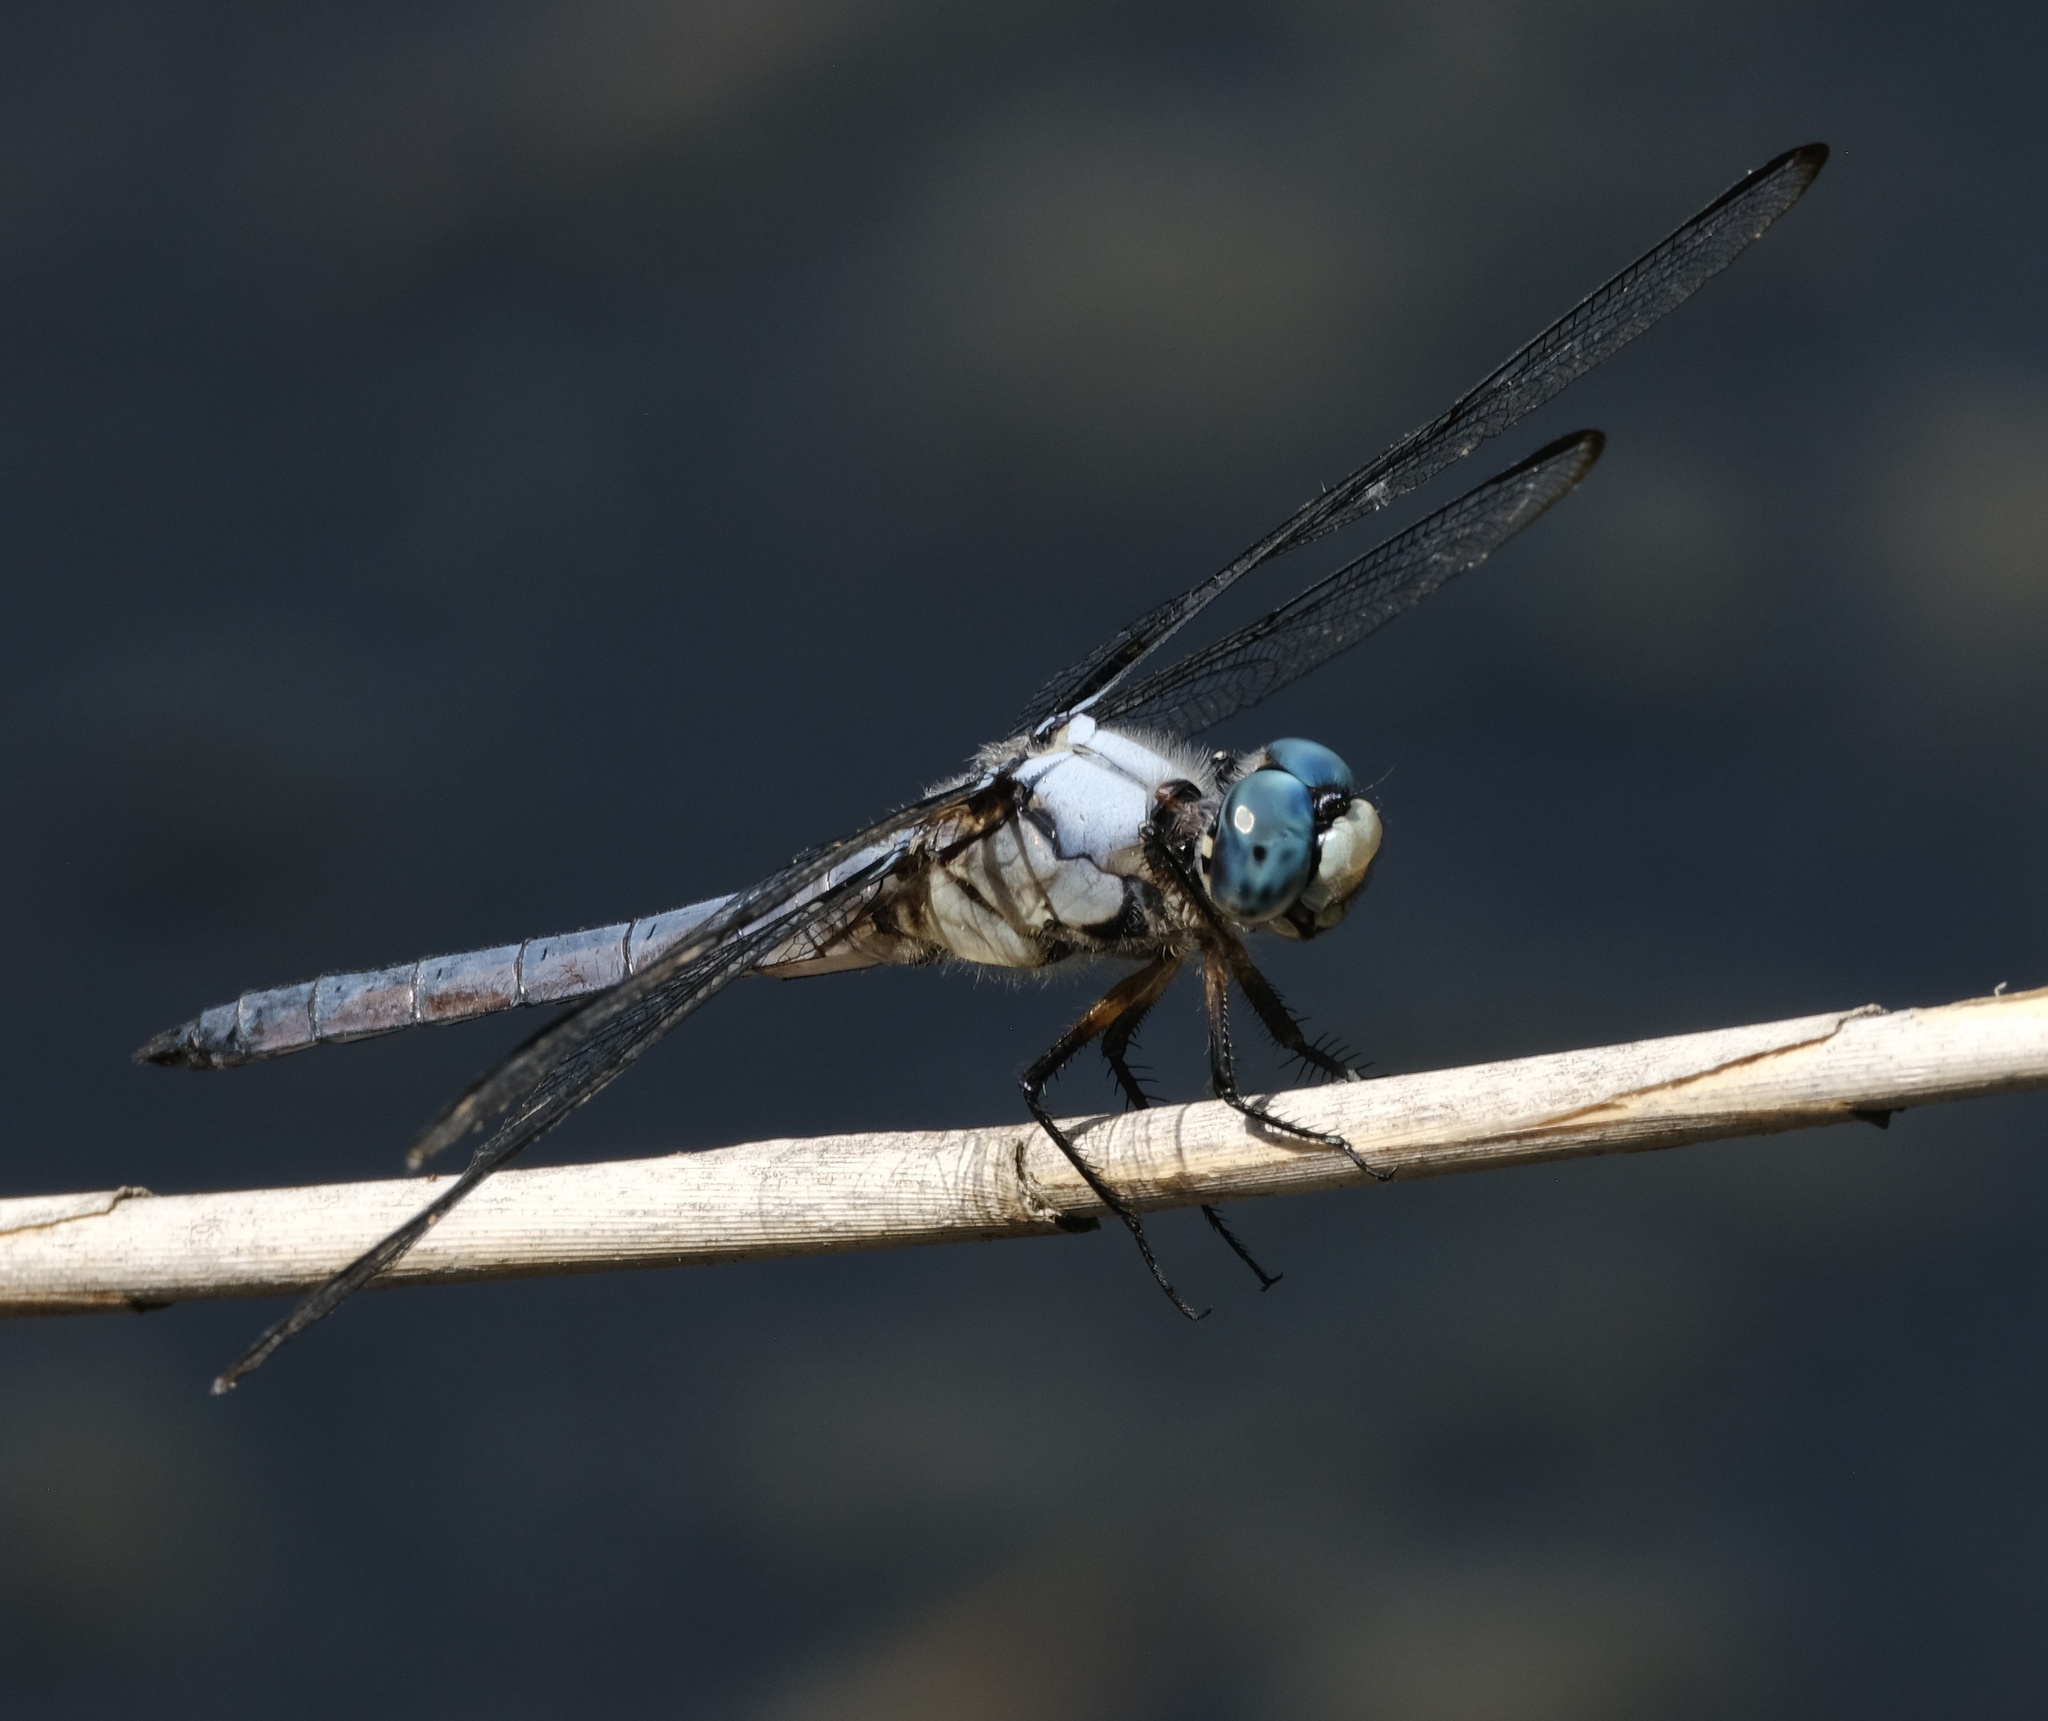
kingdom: Animalia
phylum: Arthropoda
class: Insecta
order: Odonata
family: Libellulidae
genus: Libellula
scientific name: Libellula vibrans
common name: Great blue skimmer
